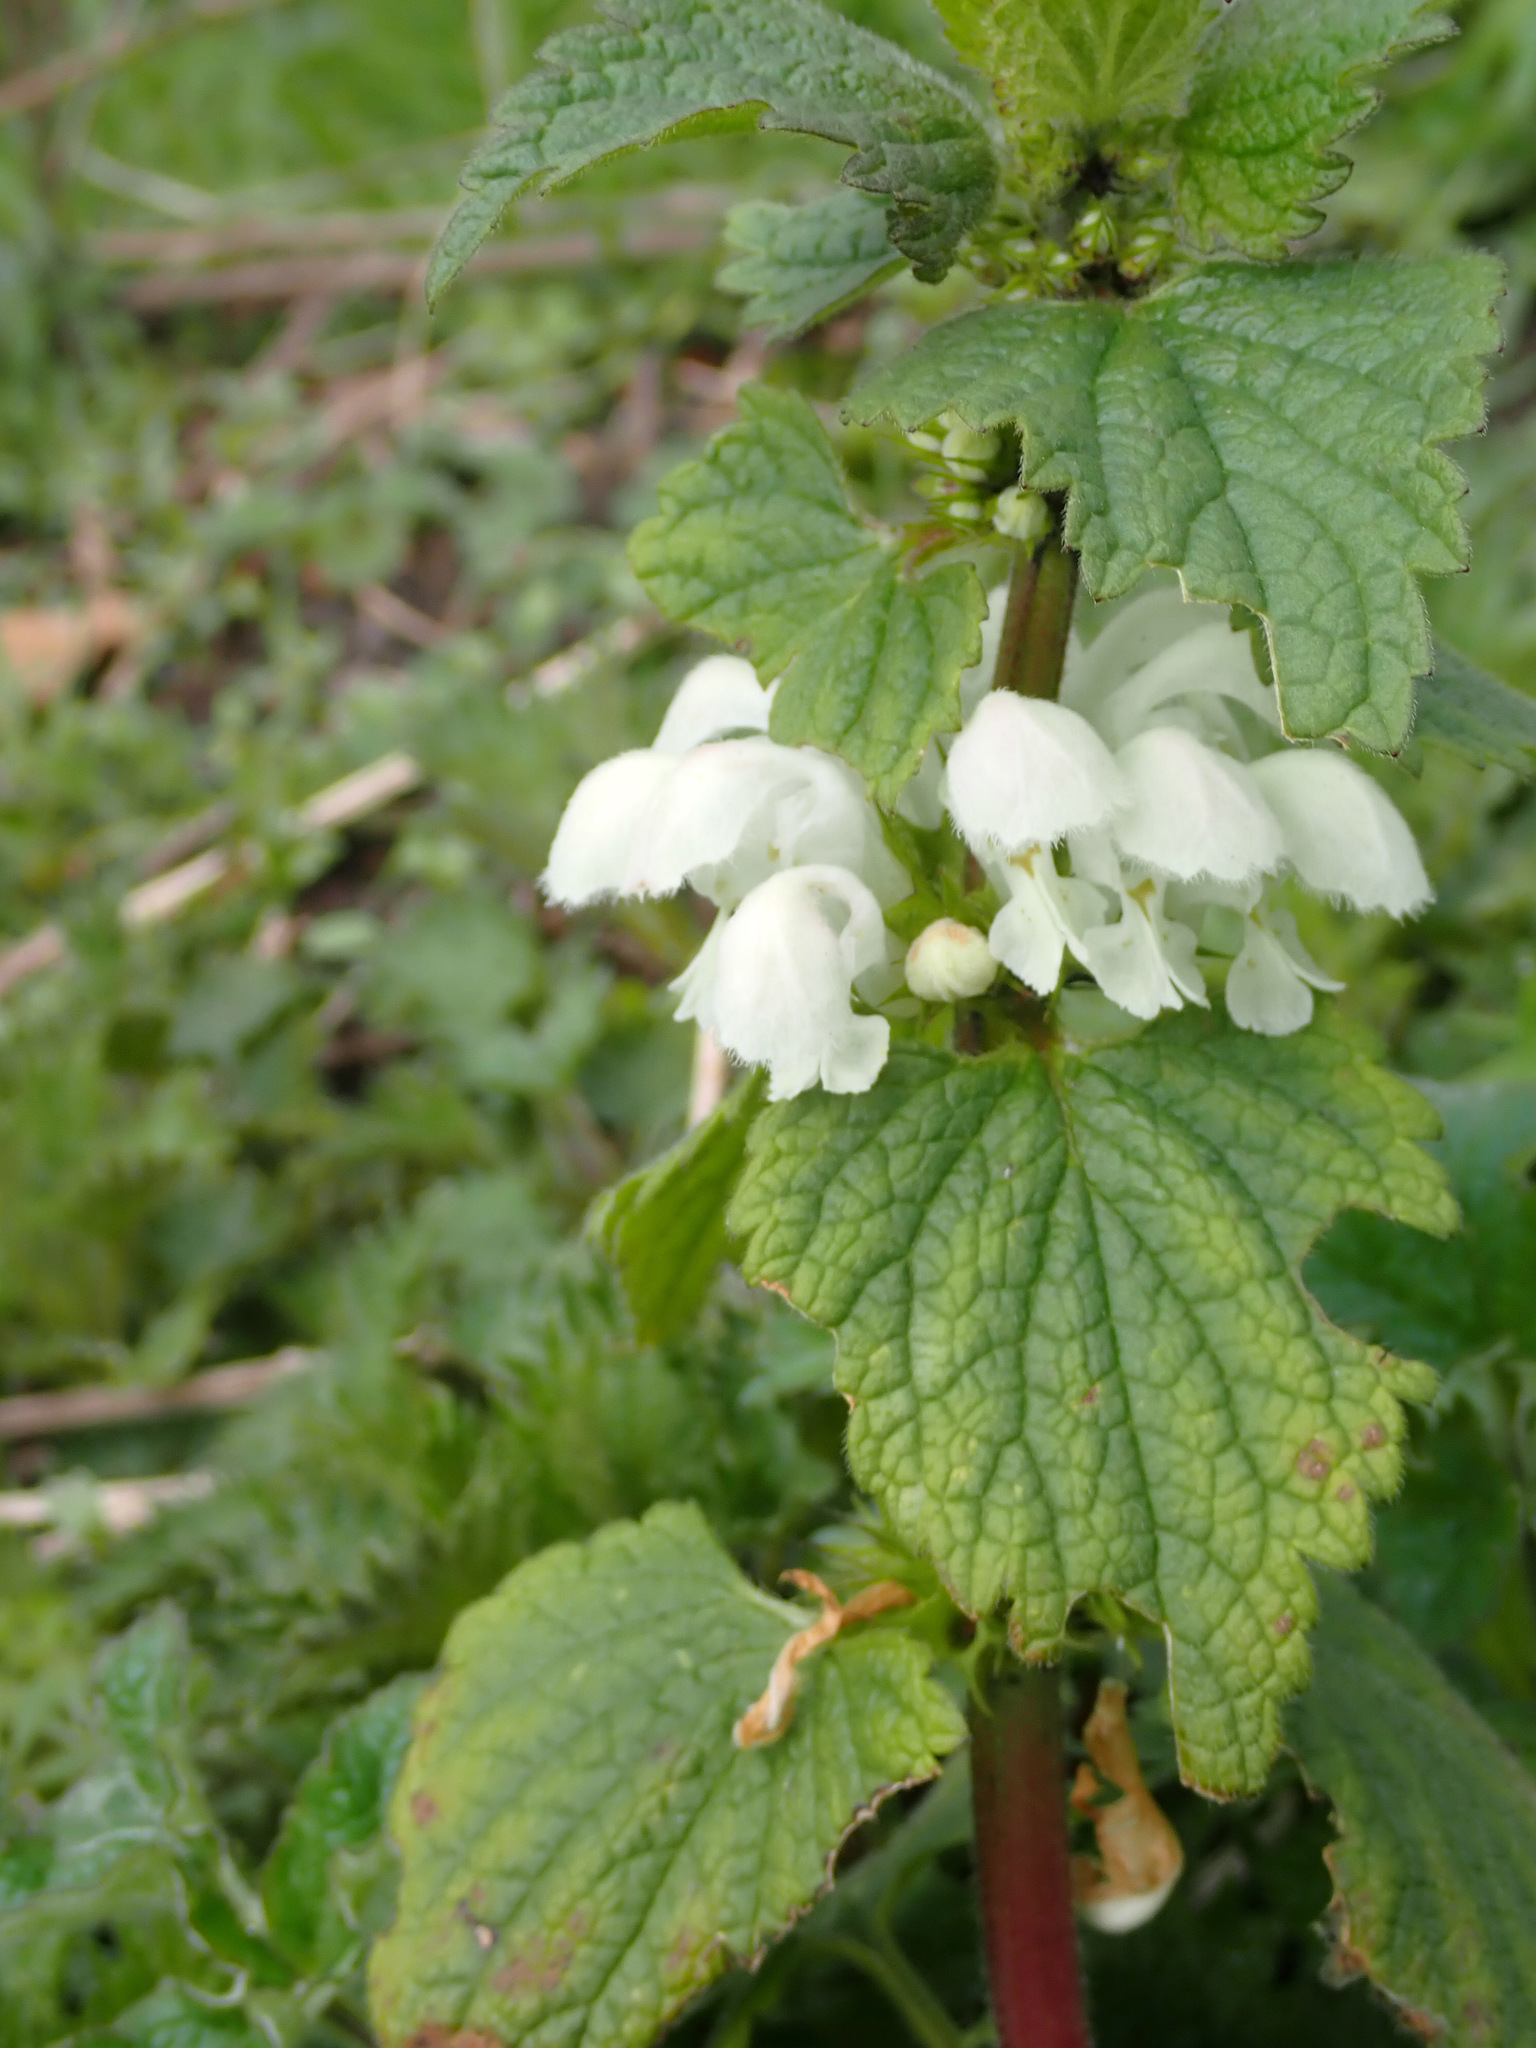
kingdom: Plantae
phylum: Tracheophyta
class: Magnoliopsida
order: Lamiales
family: Lamiaceae
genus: Lamium
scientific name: Lamium album
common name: White dead-nettle
